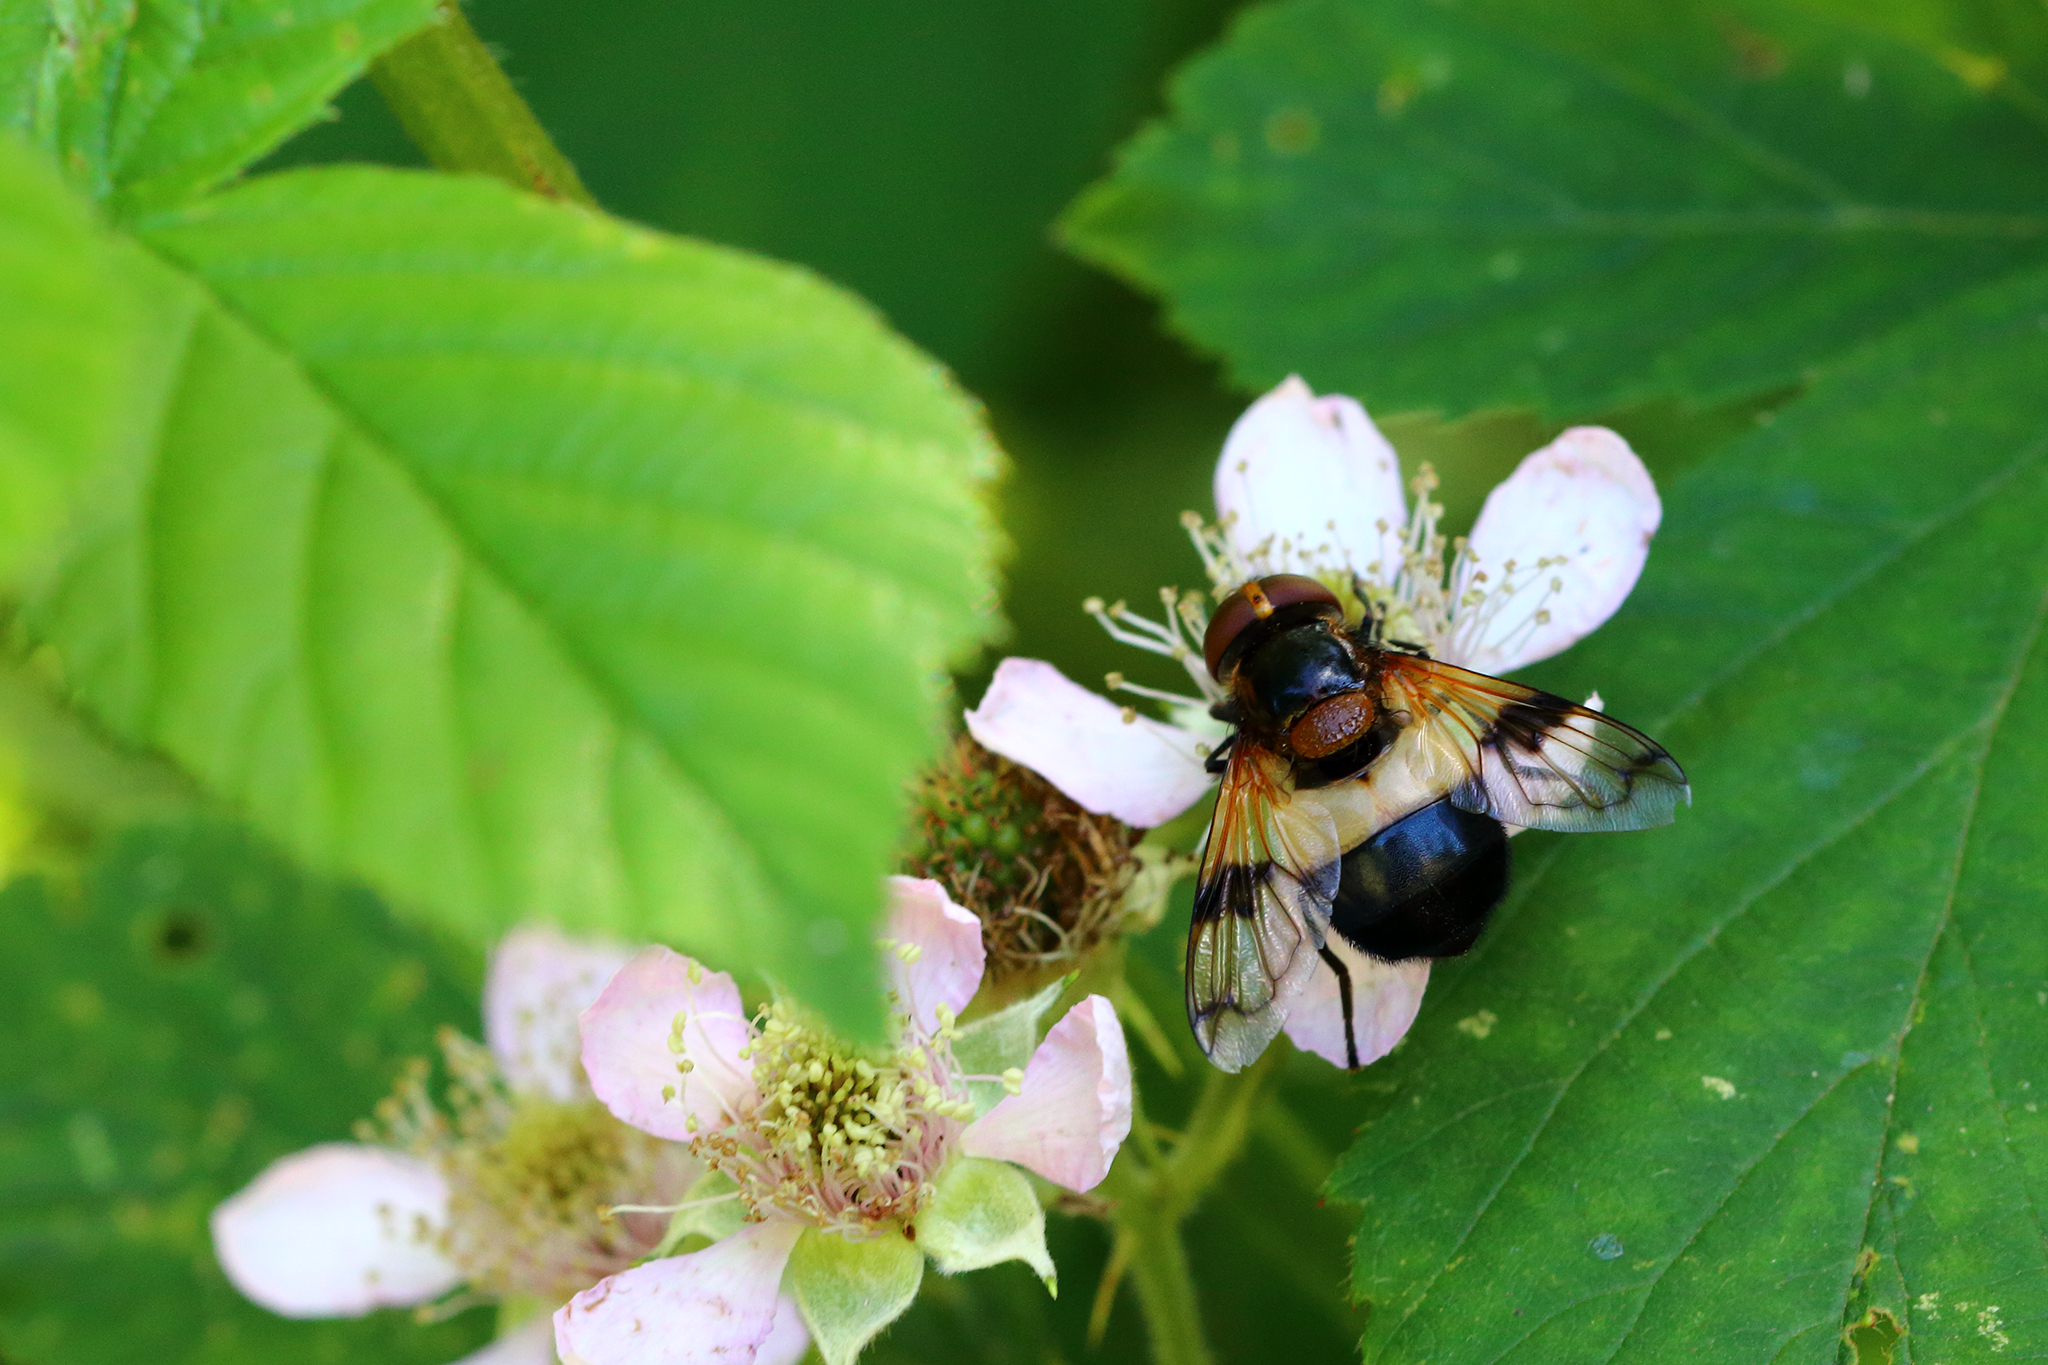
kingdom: Animalia
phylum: Arthropoda
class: Insecta
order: Diptera
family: Syrphidae
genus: Volucella
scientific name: Volucella pellucens
